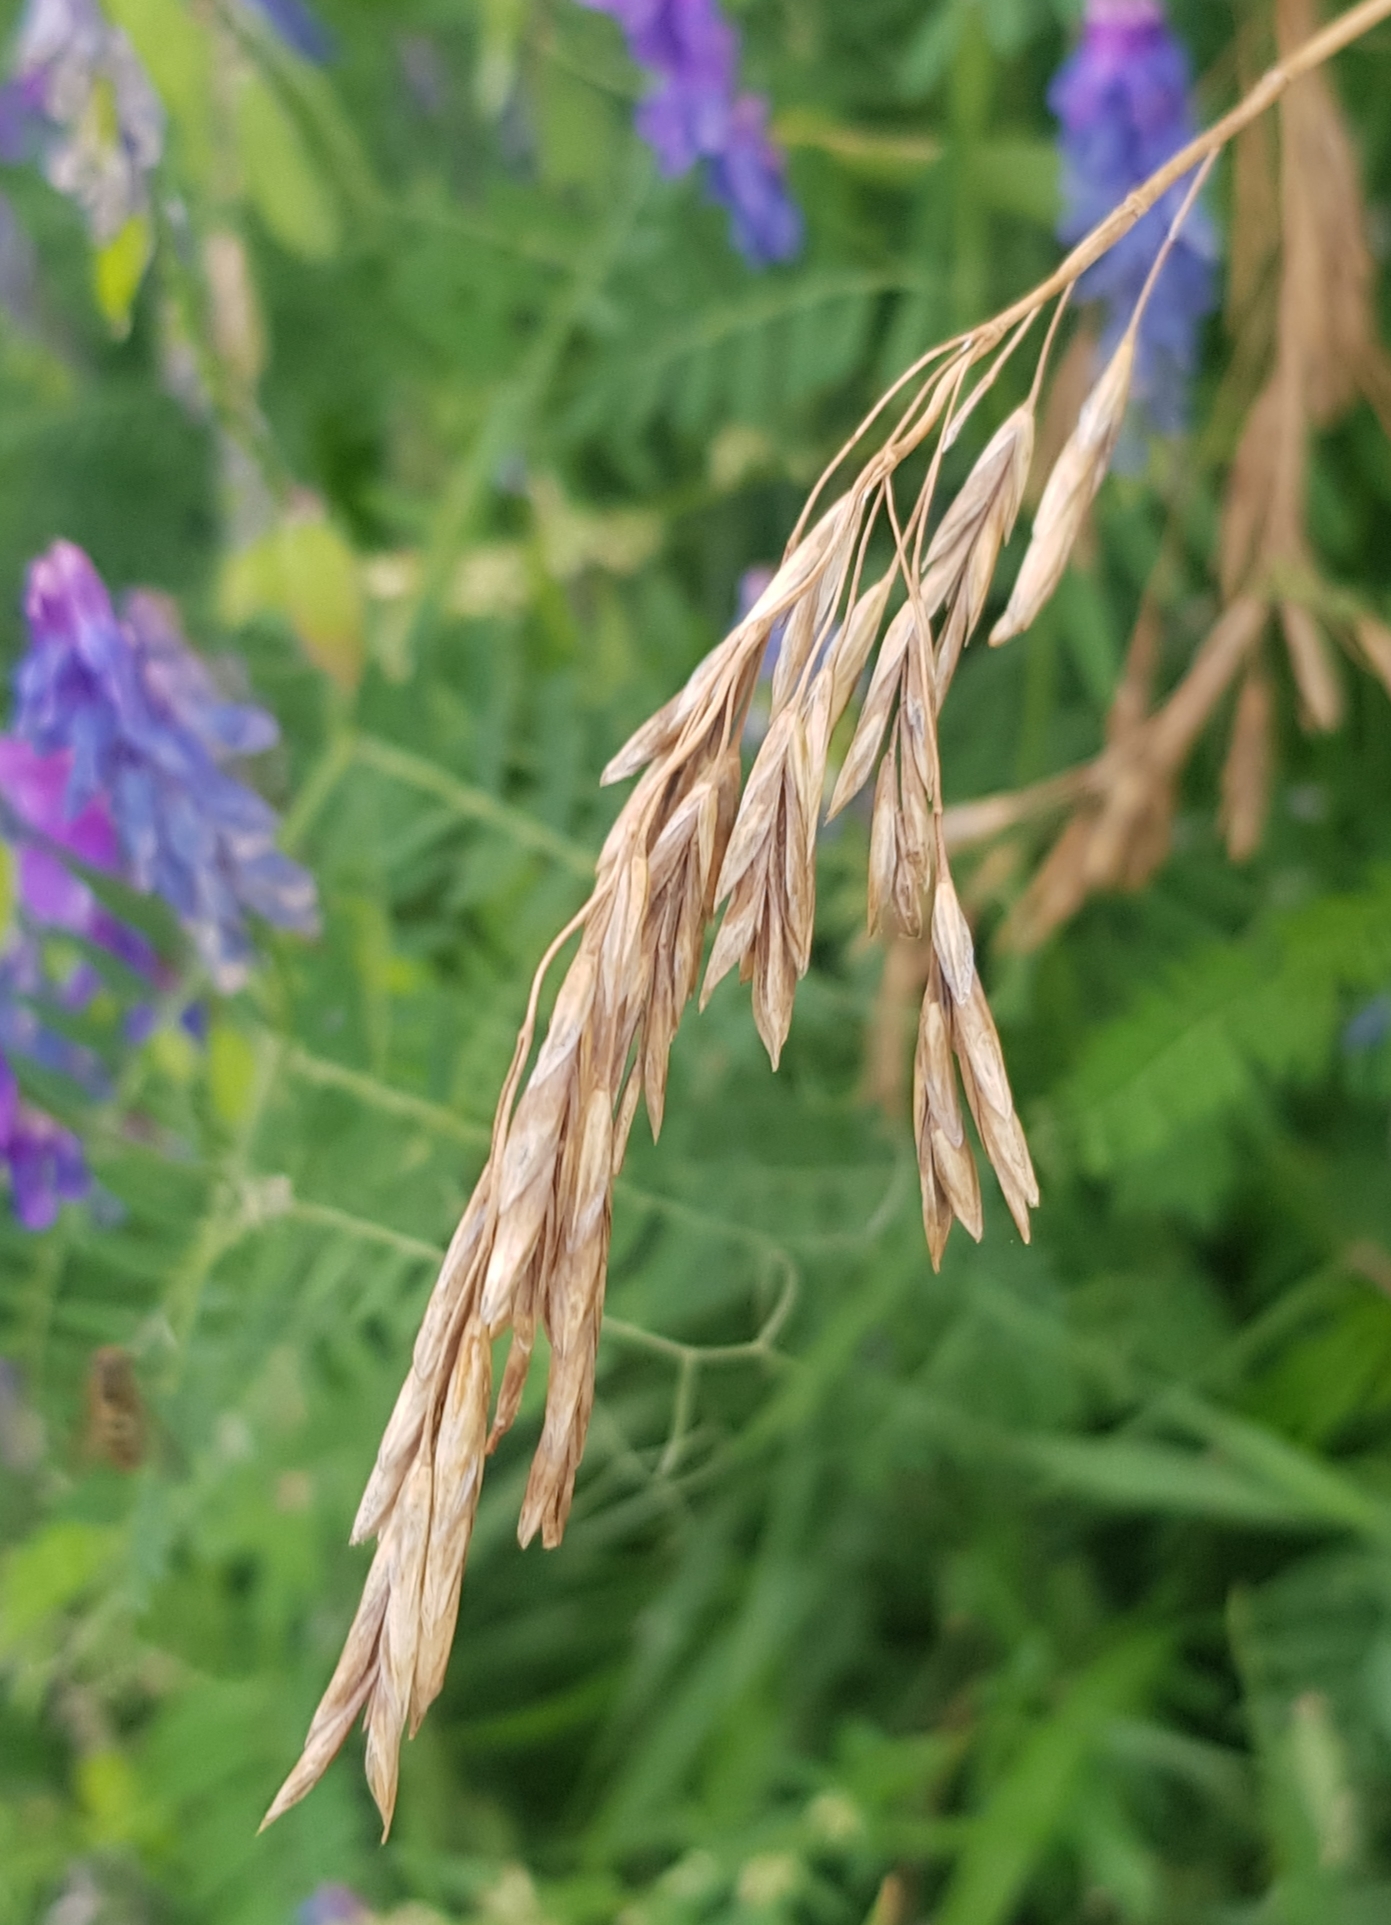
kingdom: Plantae
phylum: Tracheophyta
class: Liliopsida
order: Poales
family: Poaceae
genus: Bromus
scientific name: Bromus inermis
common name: Smooth brome
